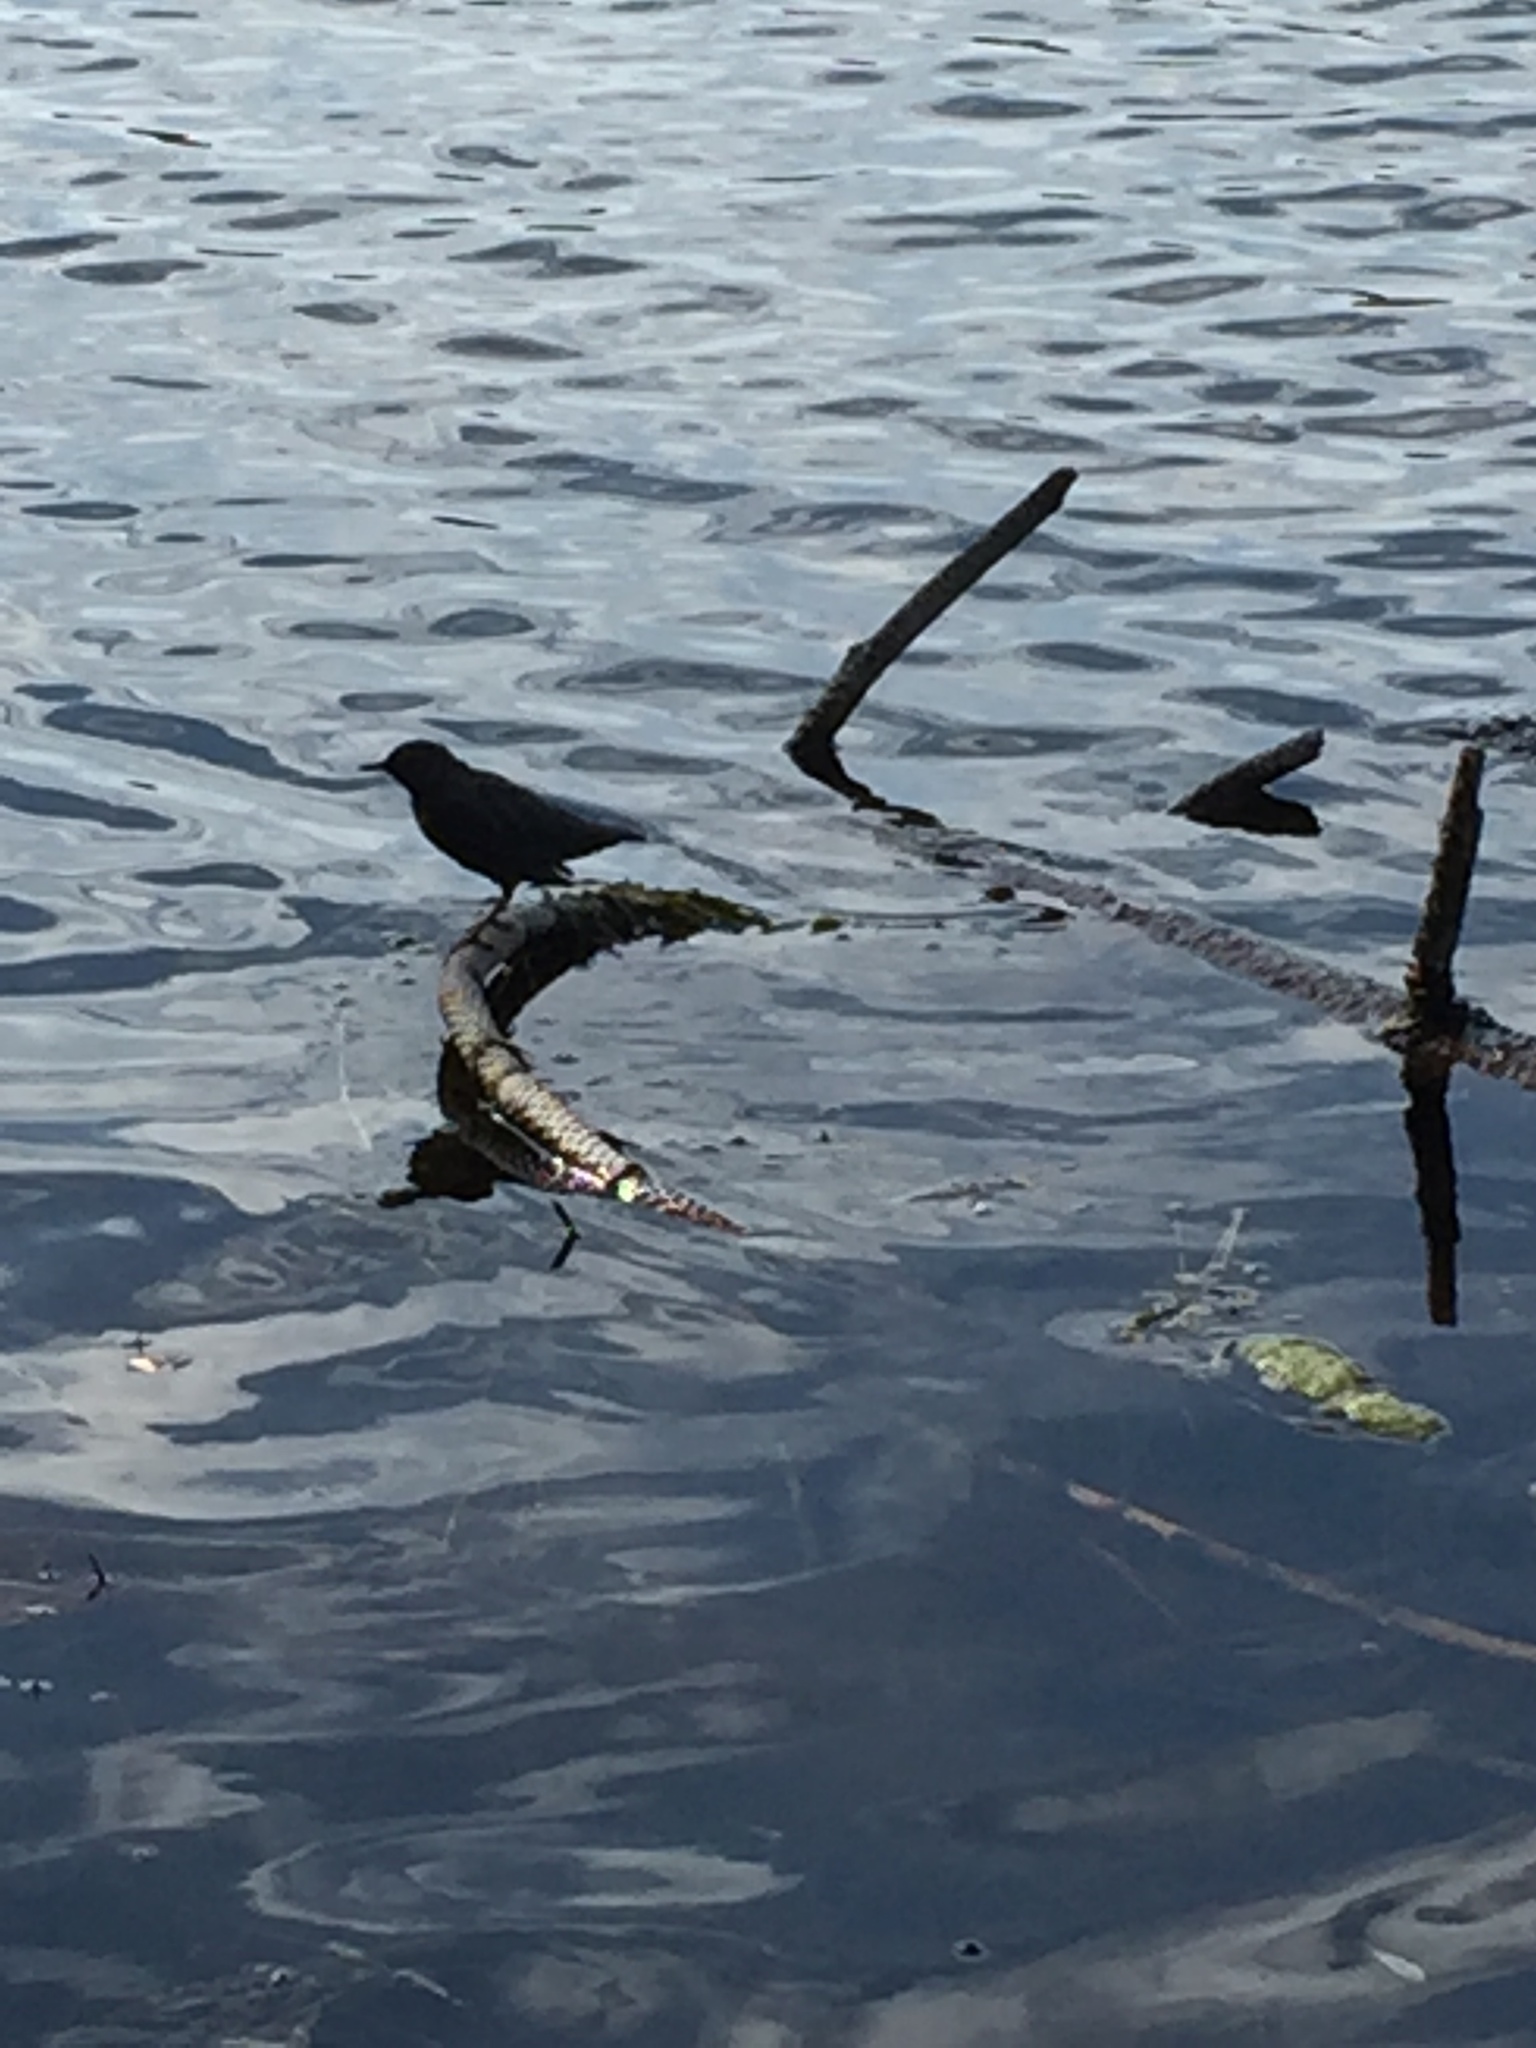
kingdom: Animalia
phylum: Chordata
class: Aves
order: Passeriformes
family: Cinclidae
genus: Cinclus
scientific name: Cinclus mexicanus
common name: American dipper
